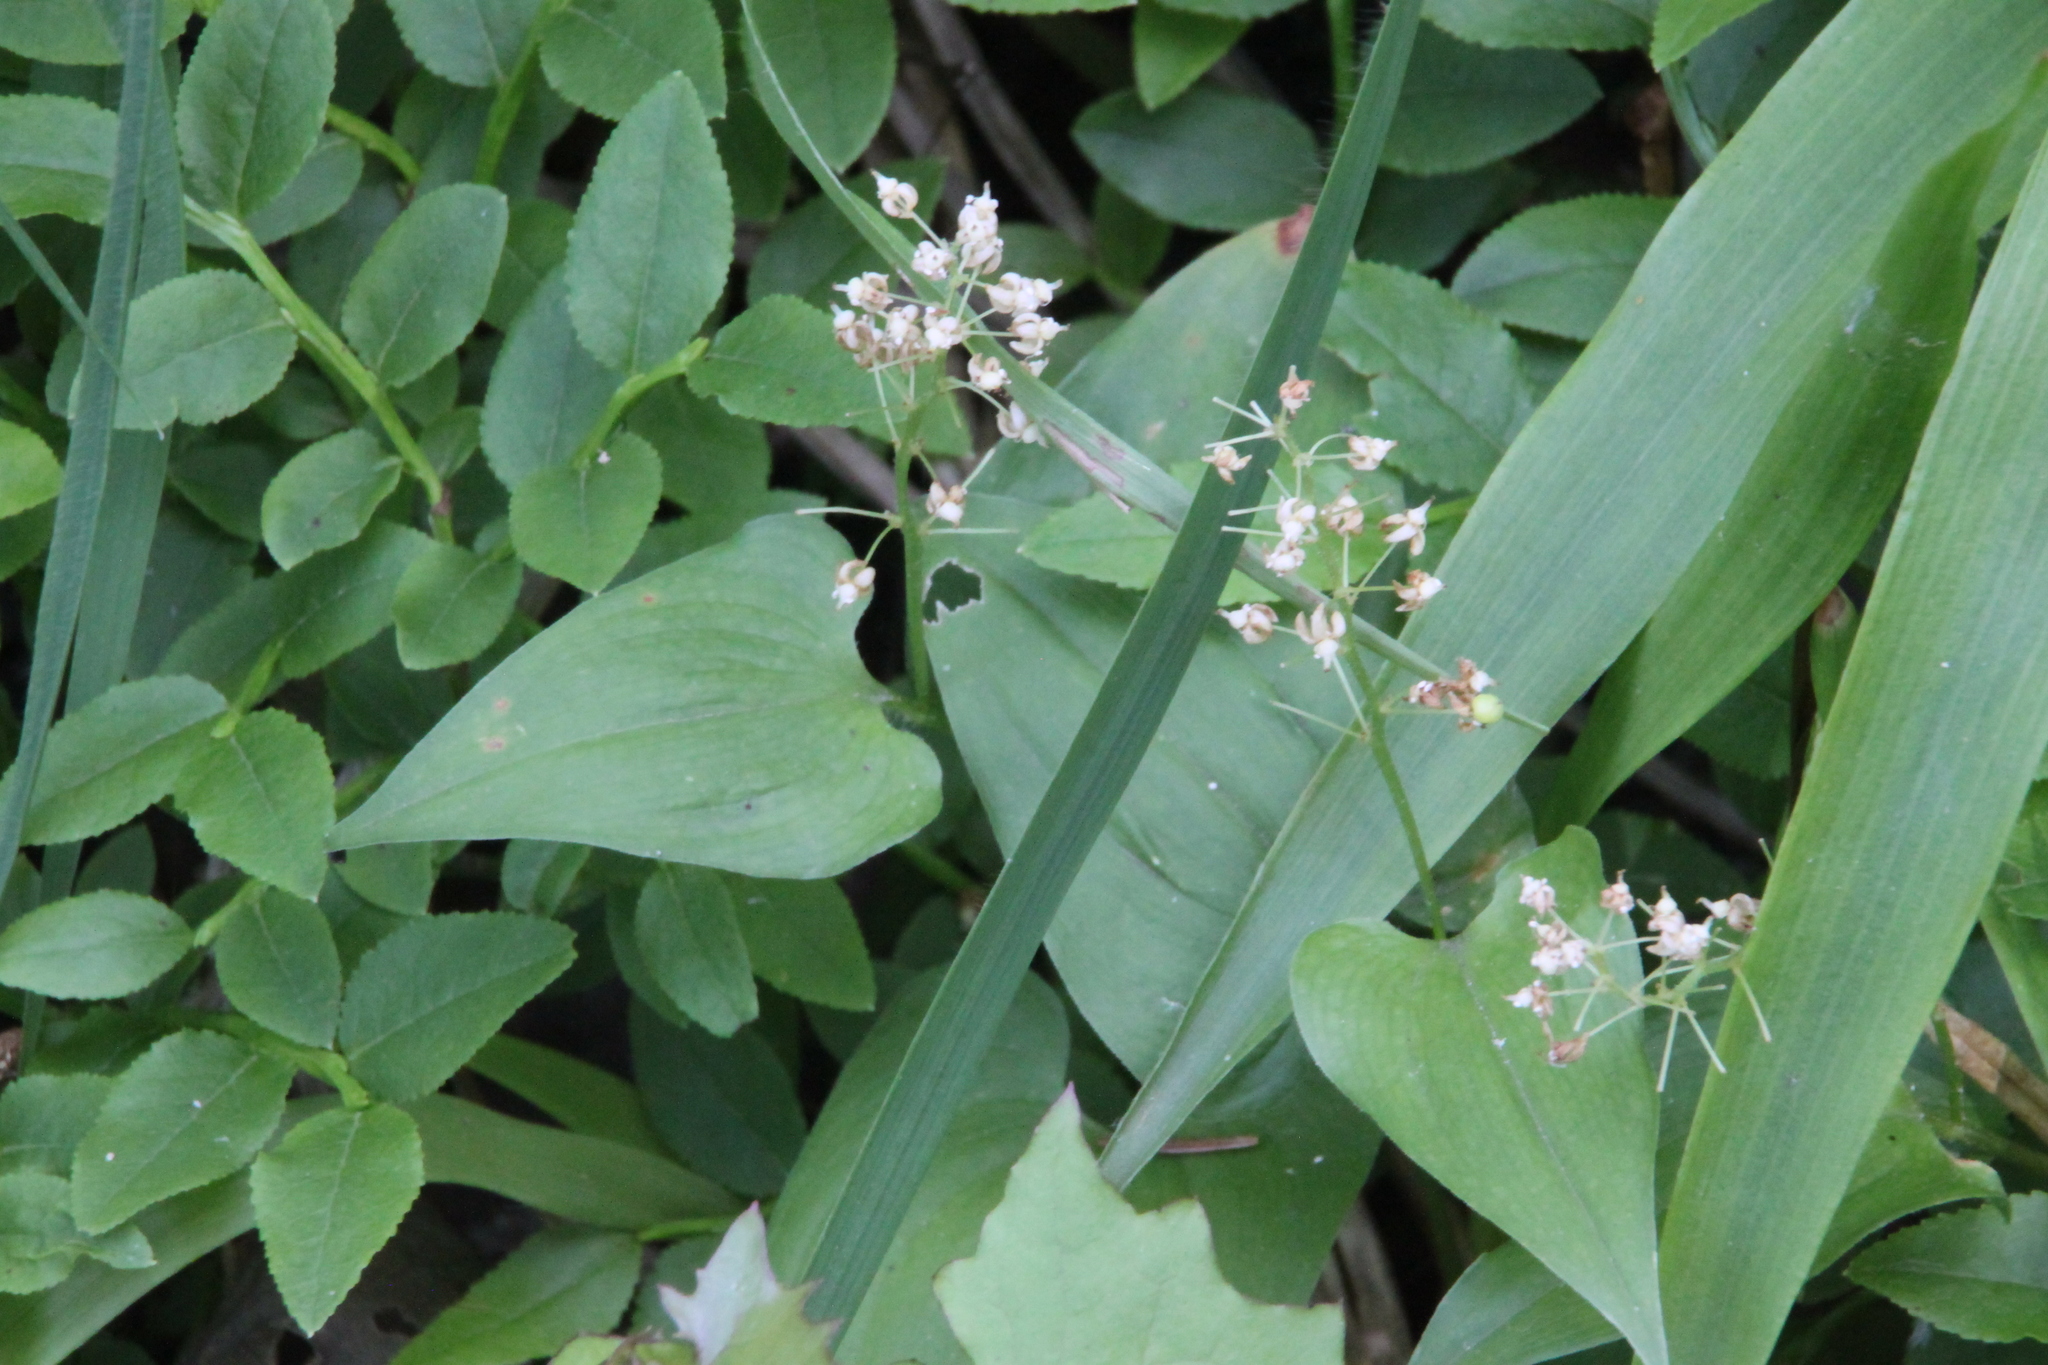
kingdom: Plantae
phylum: Tracheophyta
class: Liliopsida
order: Asparagales
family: Asparagaceae
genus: Maianthemum
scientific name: Maianthemum bifolium
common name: May lily
